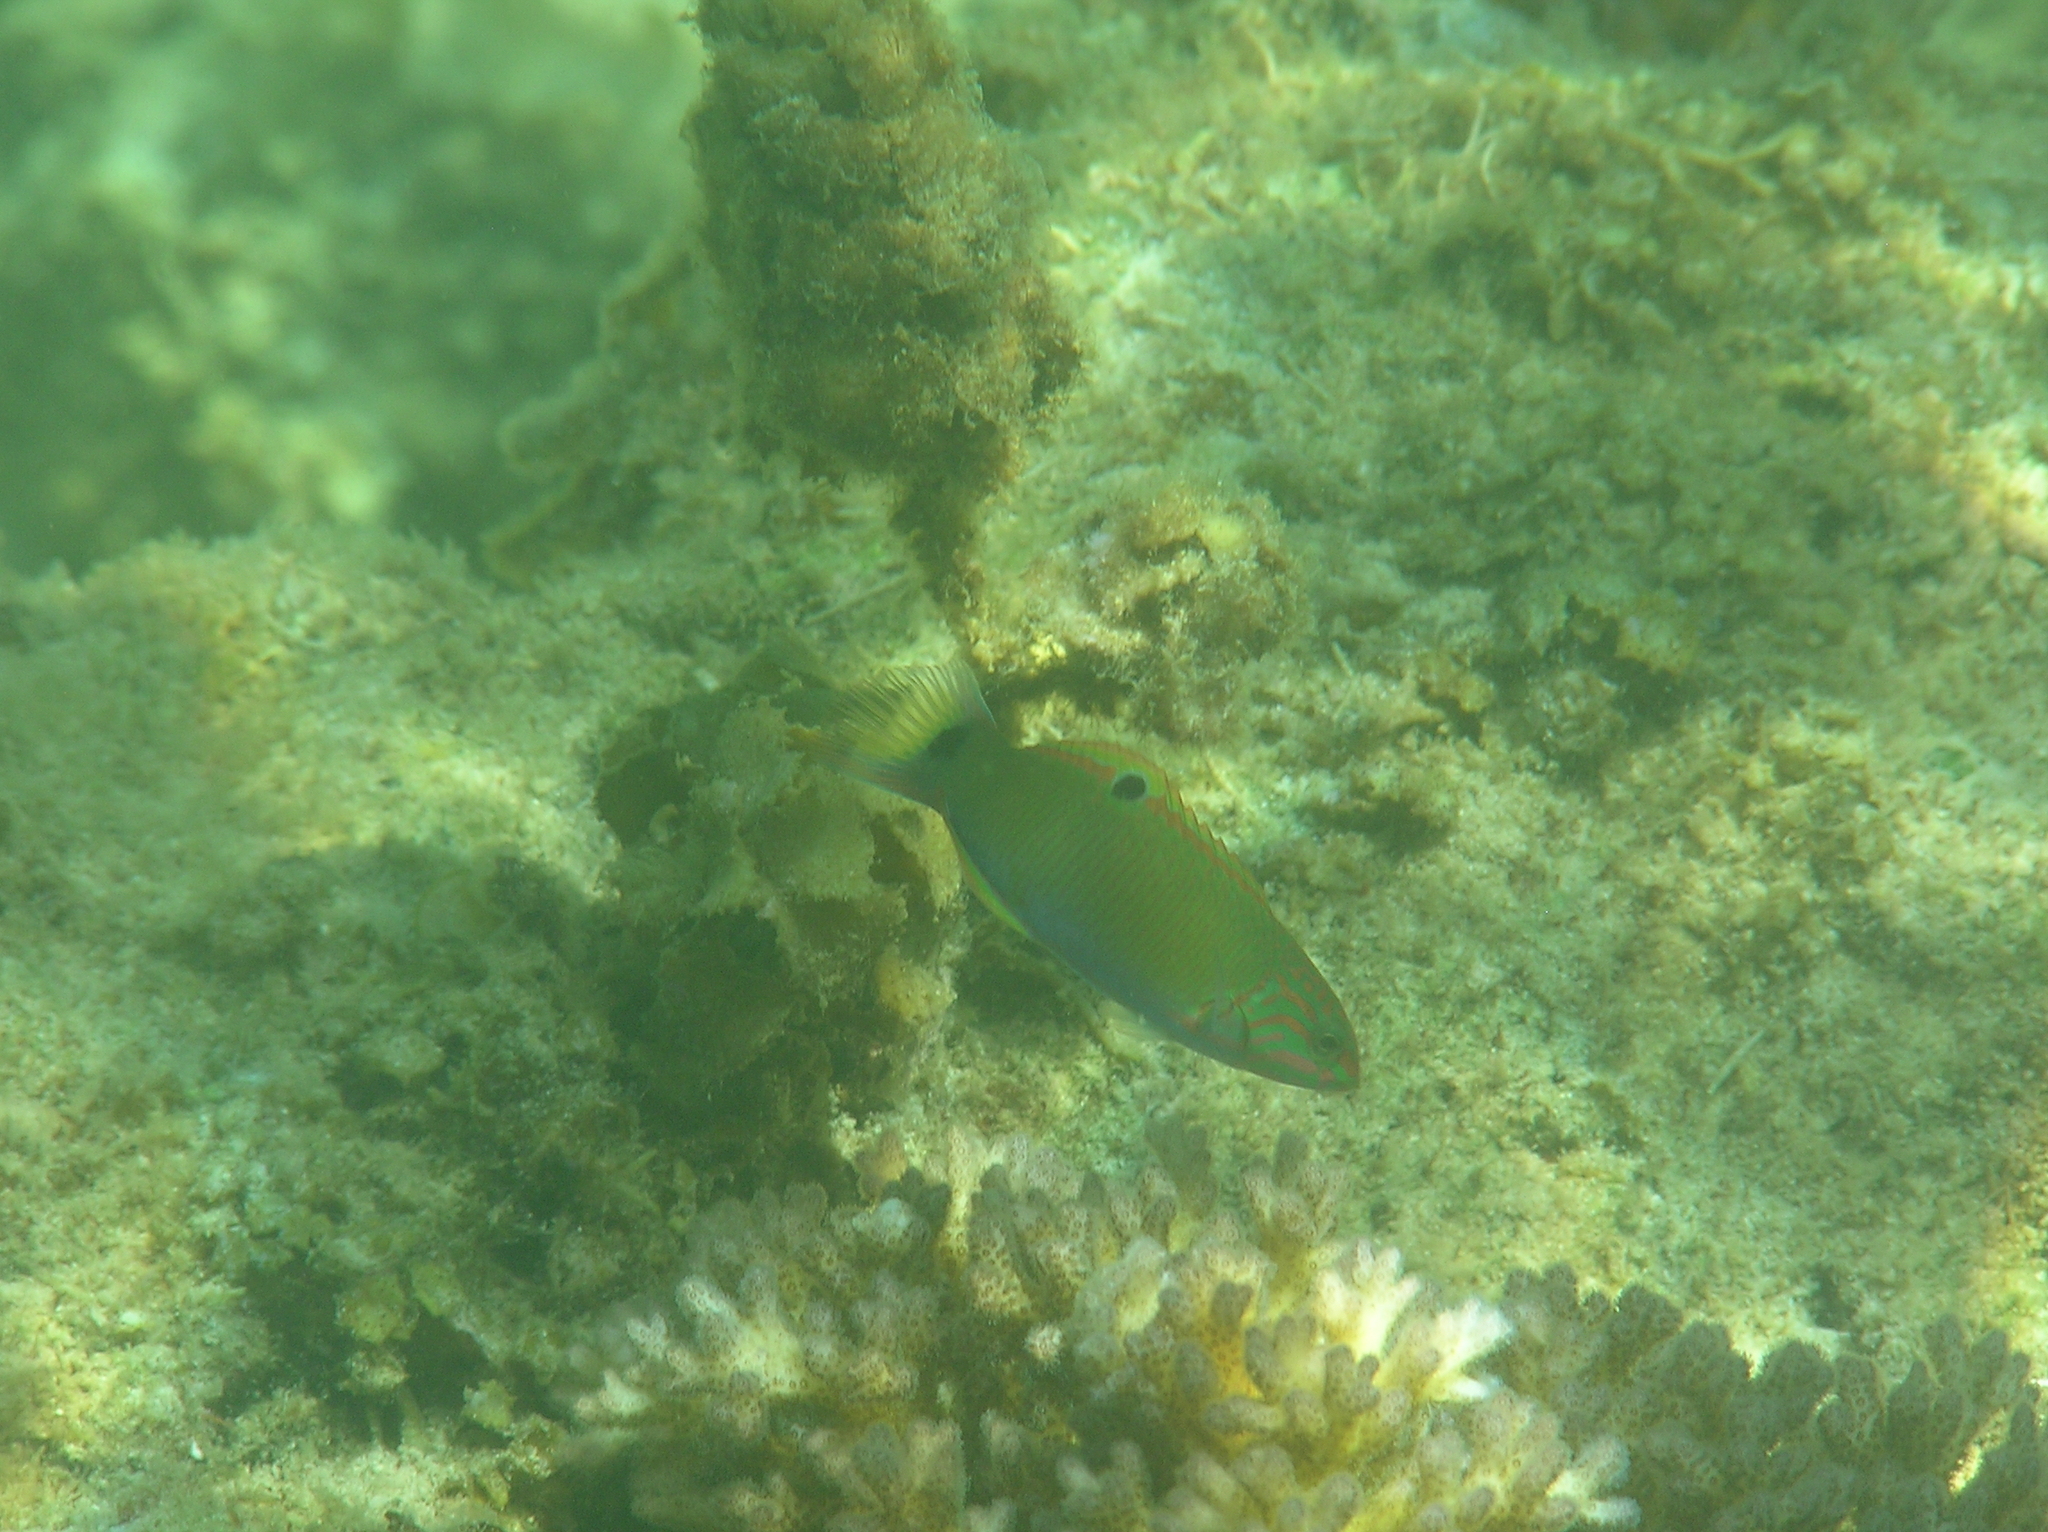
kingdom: Animalia
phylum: Chordata
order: Perciformes
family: Labridae
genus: Thalassoma
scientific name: Thalassoma lunare
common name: Blue wrasse
